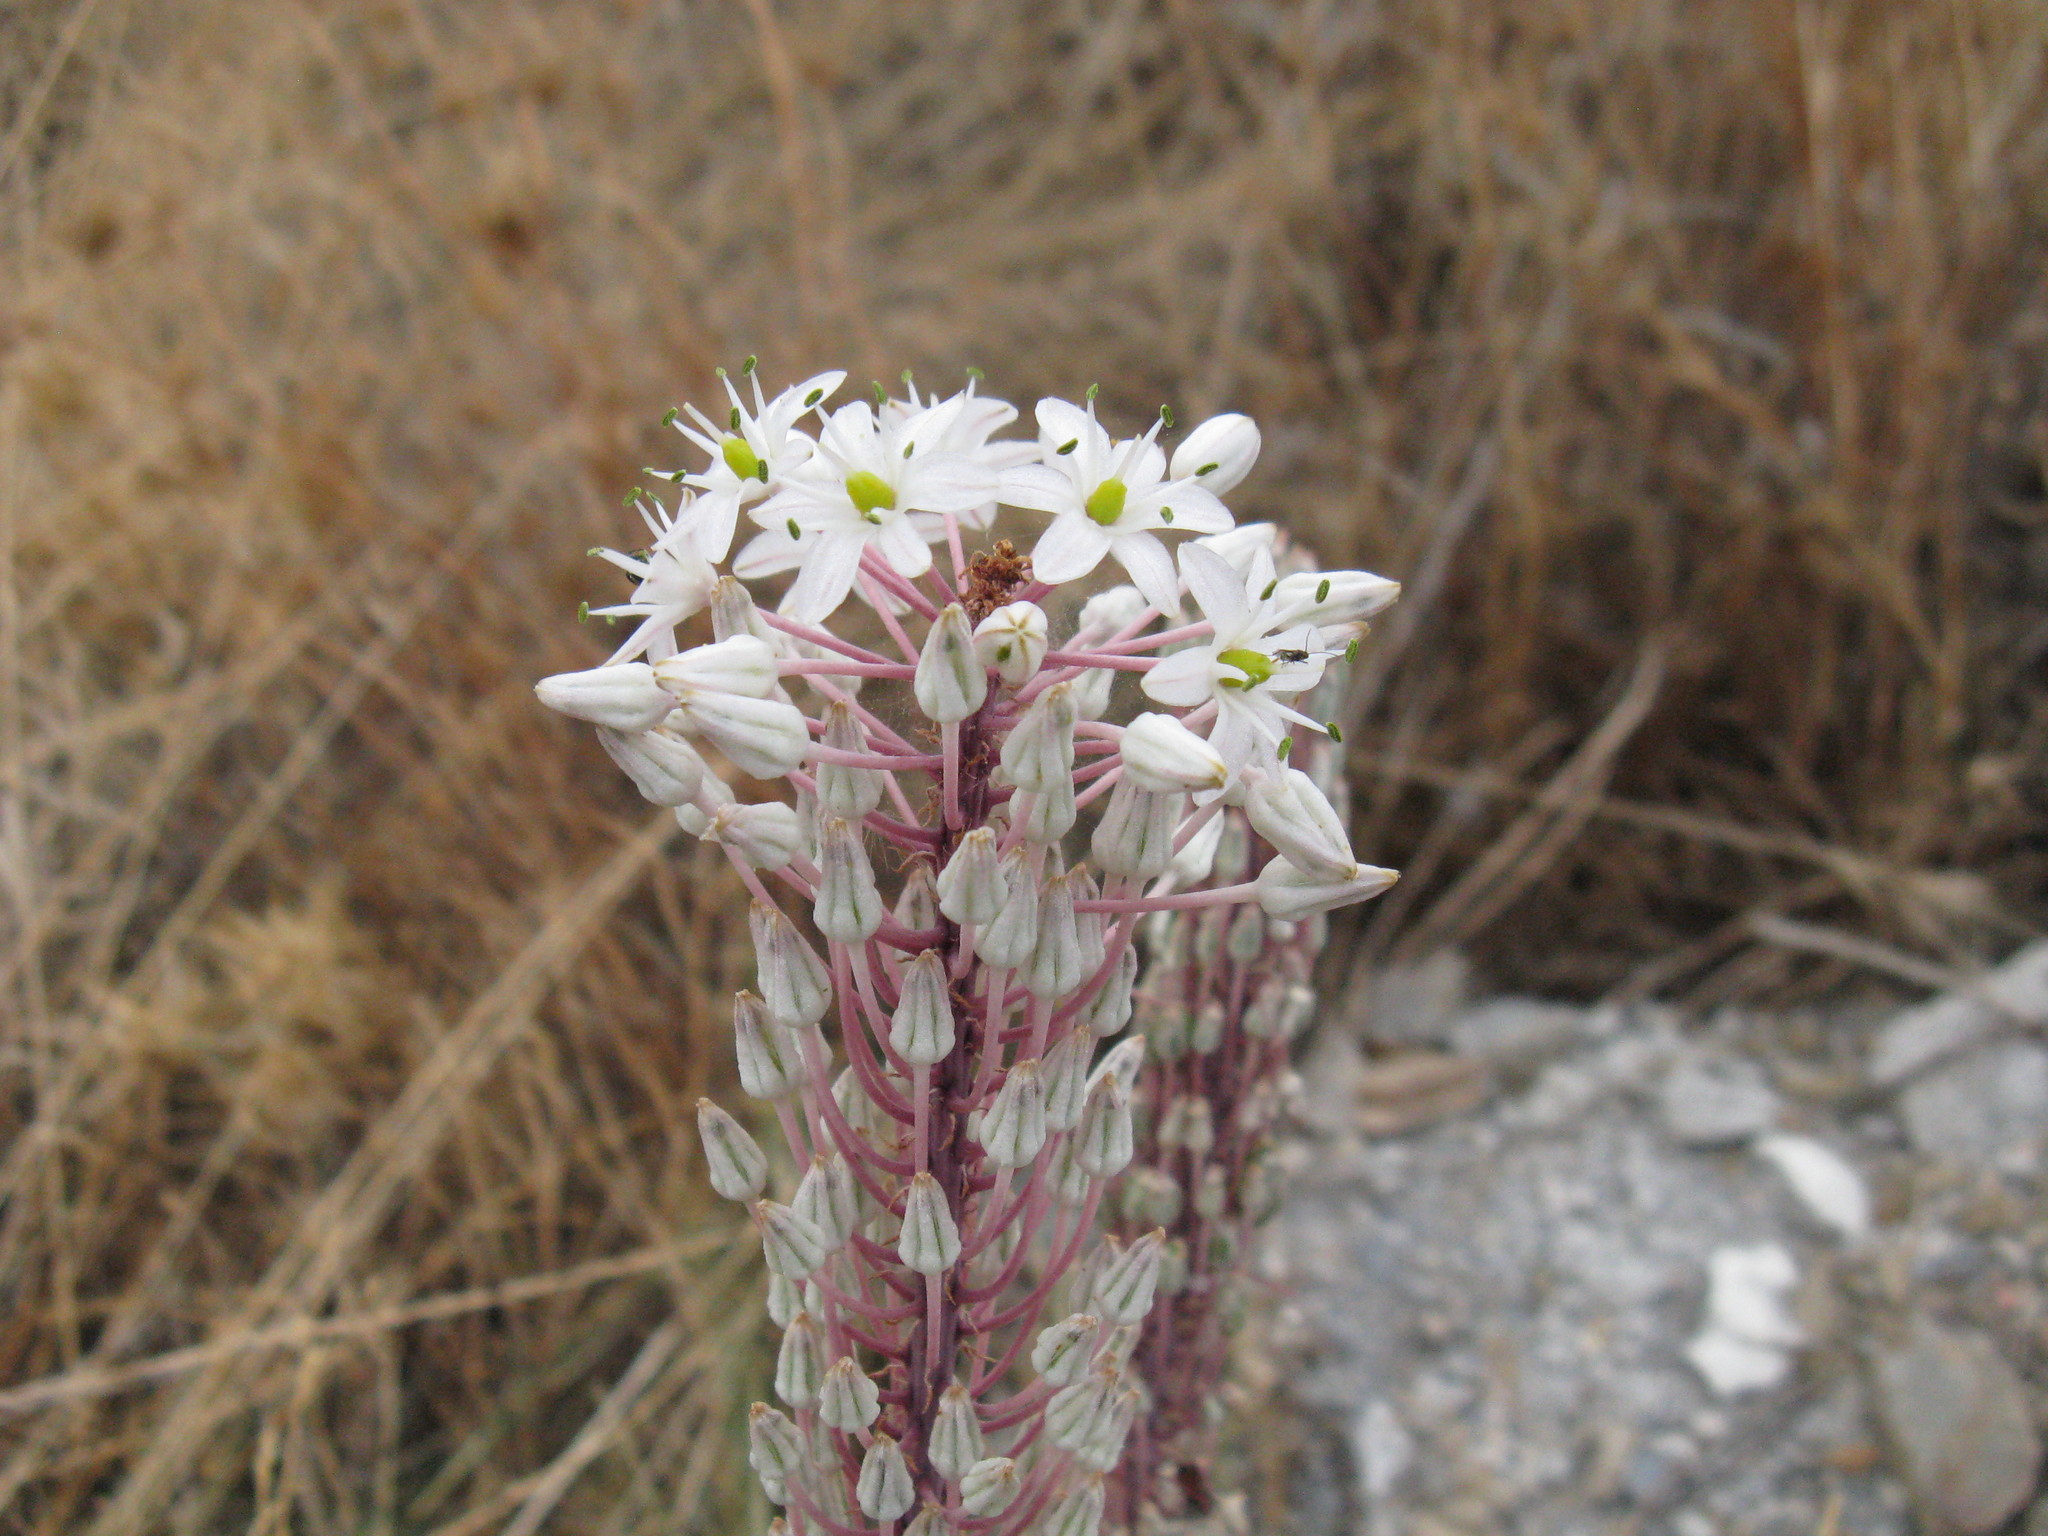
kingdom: Plantae
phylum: Tracheophyta
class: Liliopsida
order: Asparagales
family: Asparagaceae
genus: Drimia
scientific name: Drimia numidica
